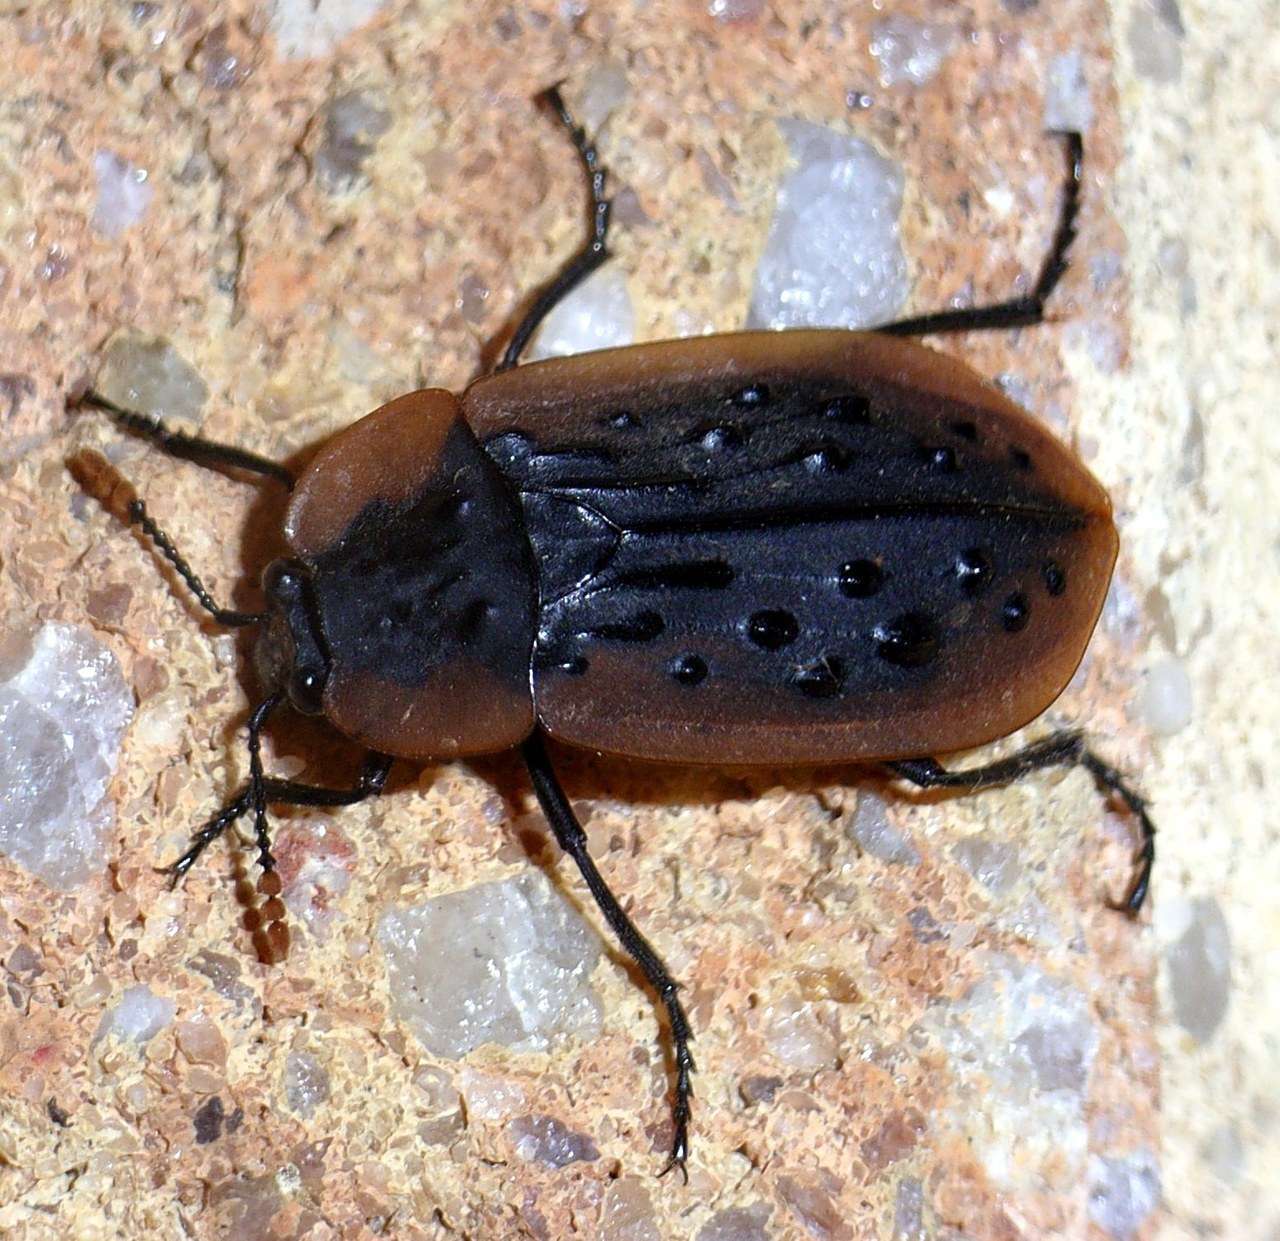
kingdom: Animalia
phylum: Arthropoda
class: Insecta
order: Coleoptera
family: Staphylinidae
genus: Ptomaphila
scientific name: Ptomaphila lacrymosa
